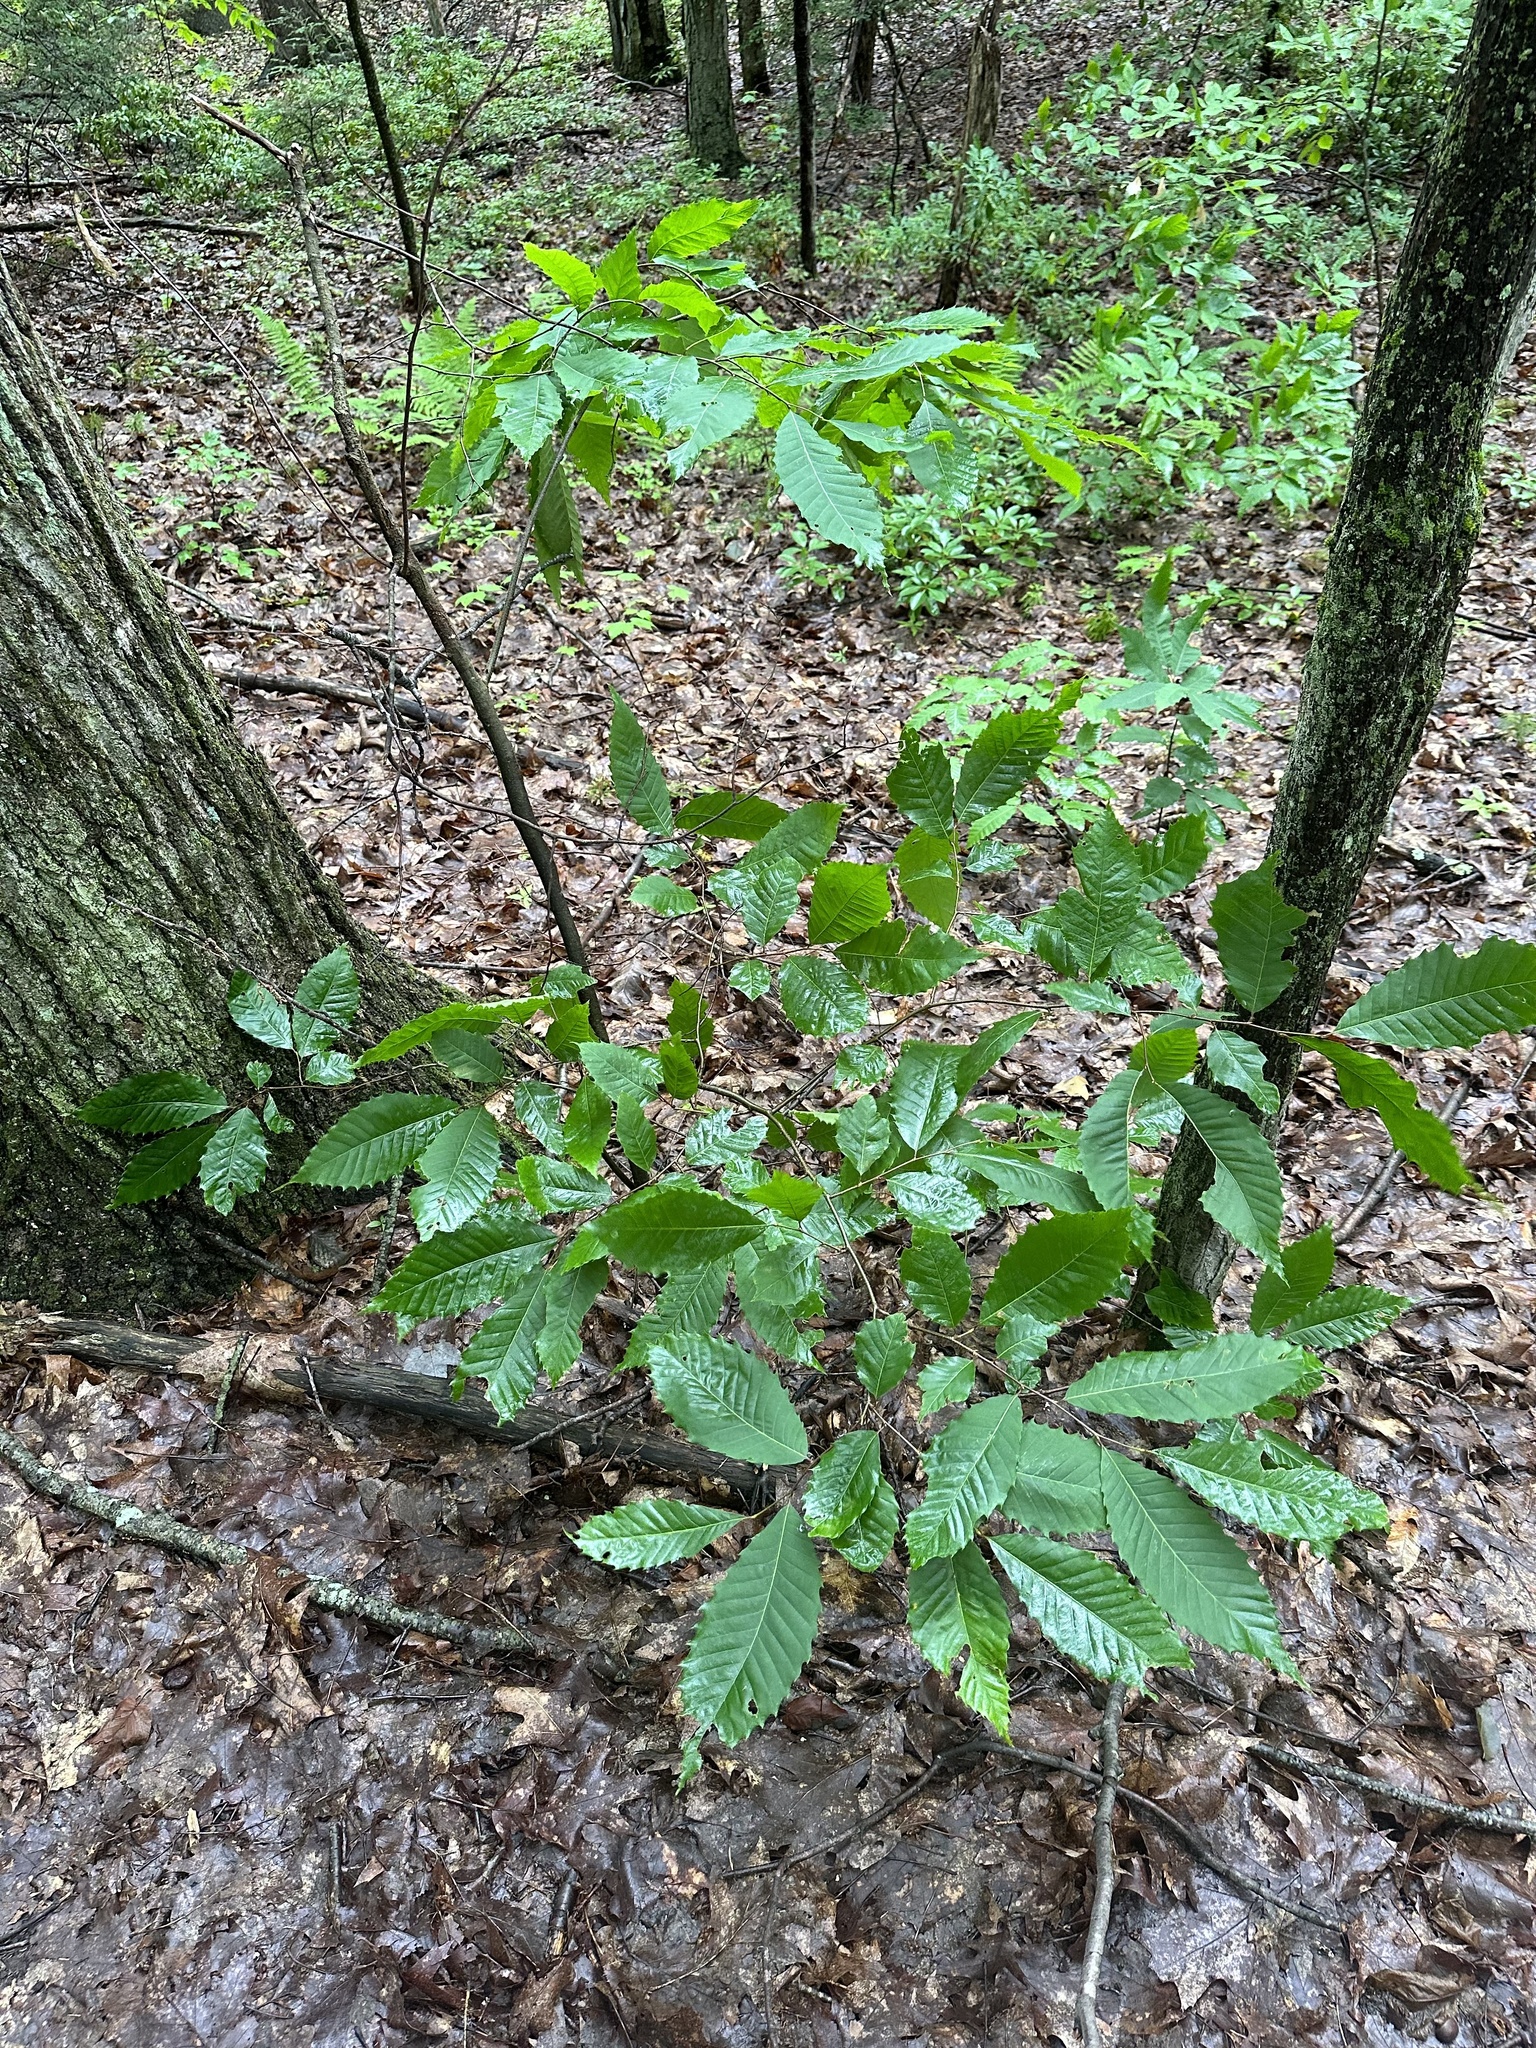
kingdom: Plantae
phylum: Tracheophyta
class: Magnoliopsida
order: Fagales
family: Fagaceae
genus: Castanea
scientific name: Castanea dentata
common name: American chestnut
